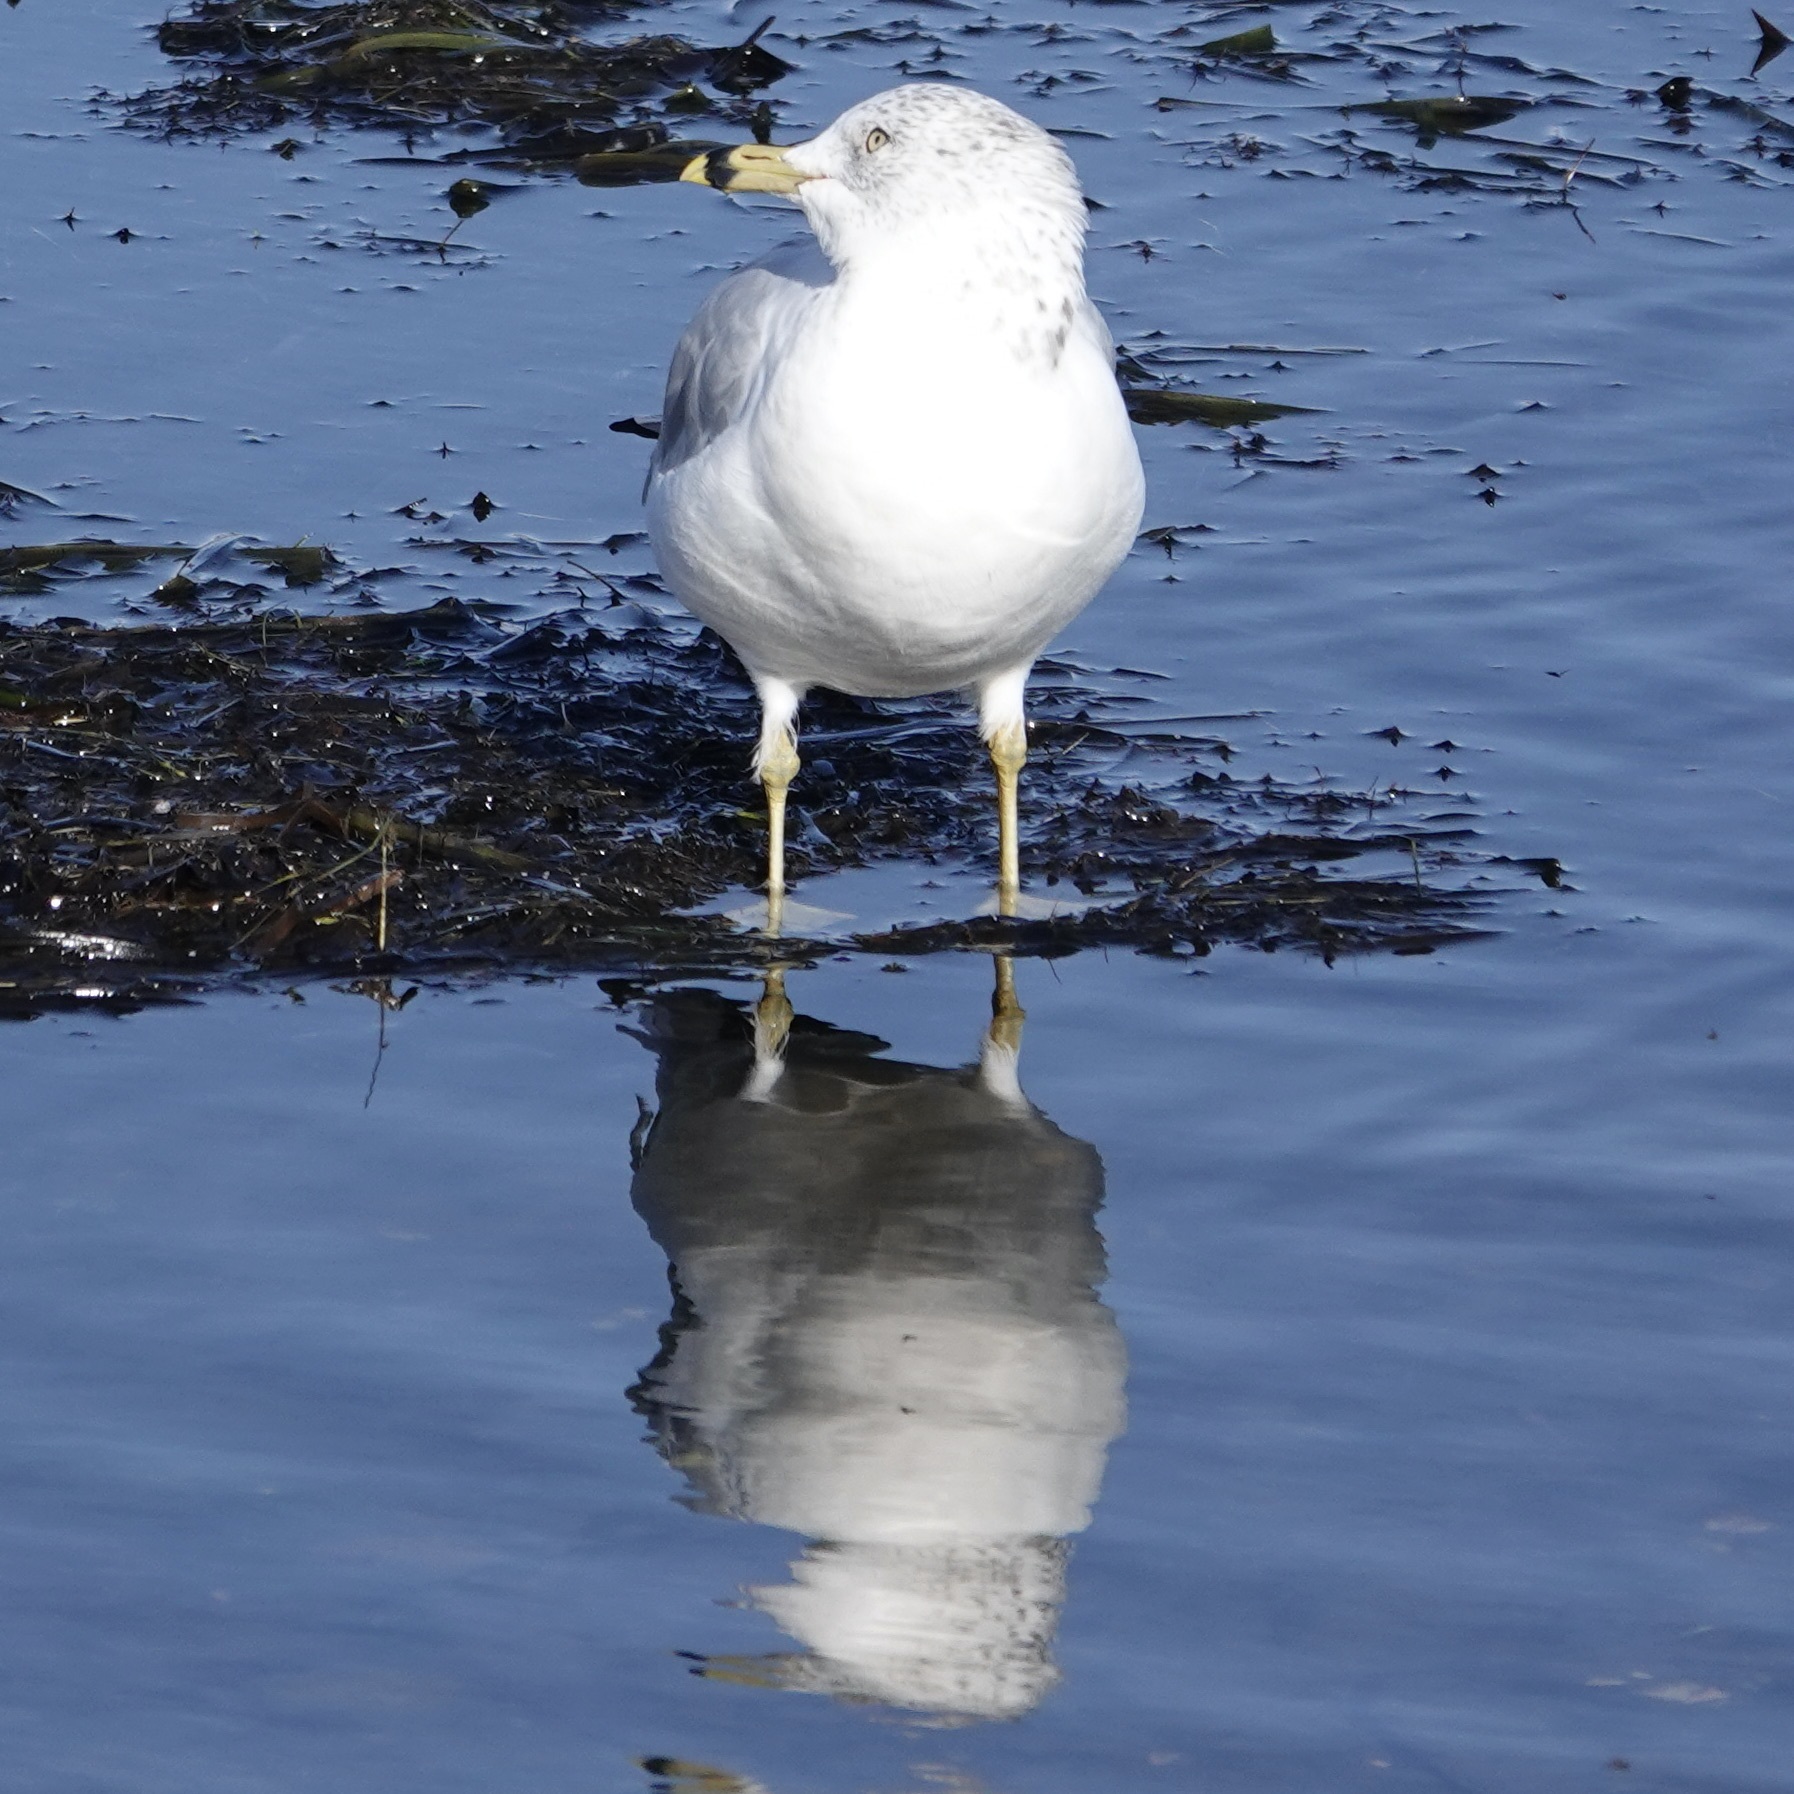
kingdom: Animalia
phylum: Chordata
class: Aves
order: Charadriiformes
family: Laridae
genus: Larus
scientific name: Larus delawarensis
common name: Ring-billed gull
